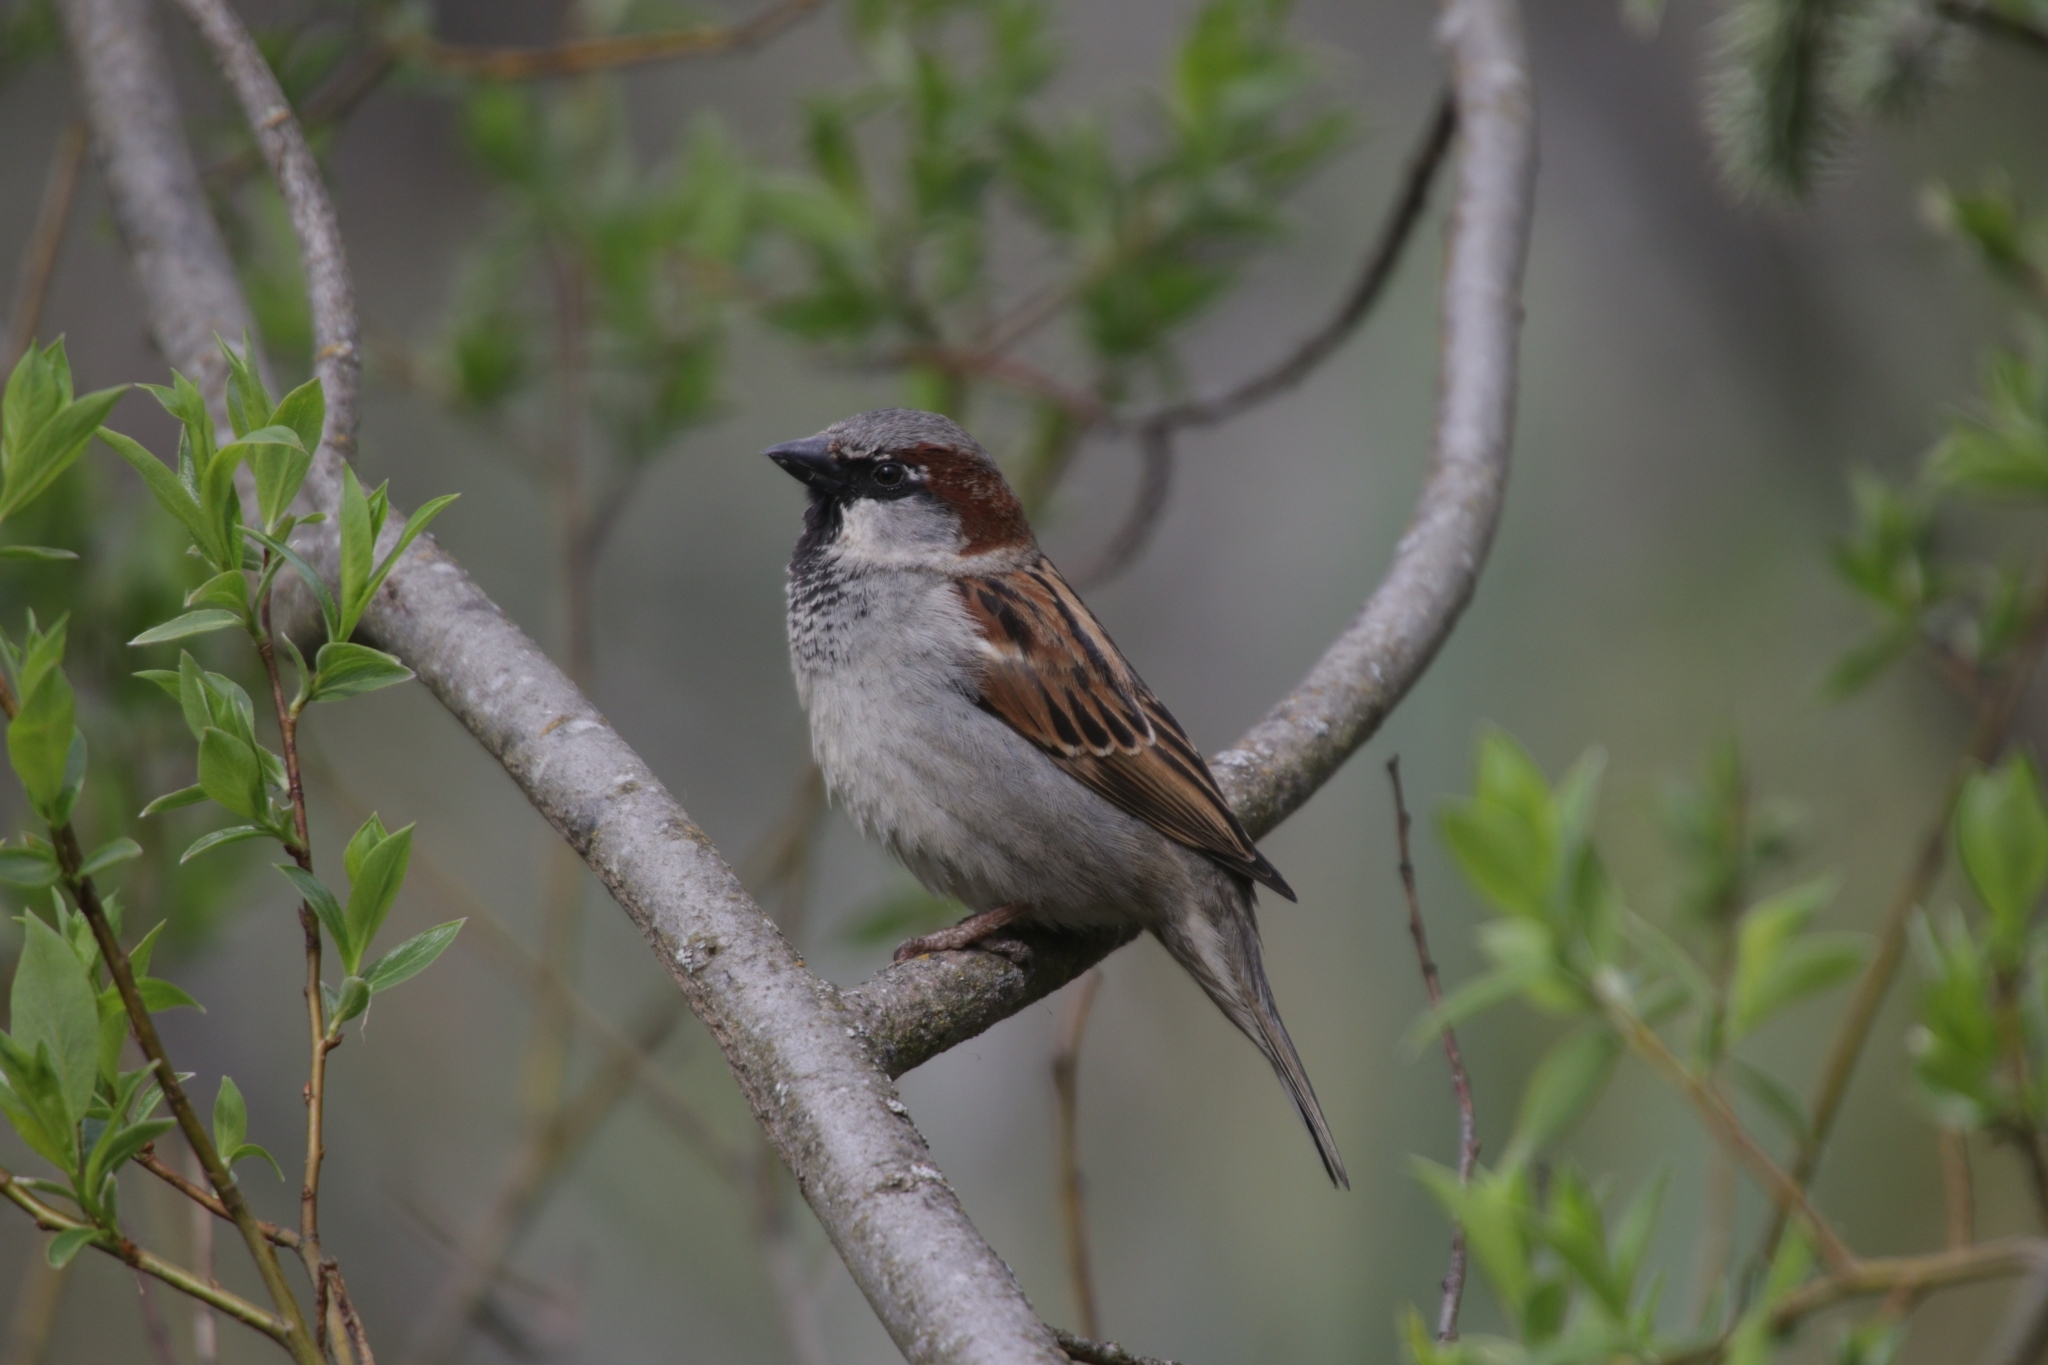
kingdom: Animalia
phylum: Chordata
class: Aves
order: Passeriformes
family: Passeridae
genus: Passer
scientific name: Passer domesticus
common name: House sparrow
